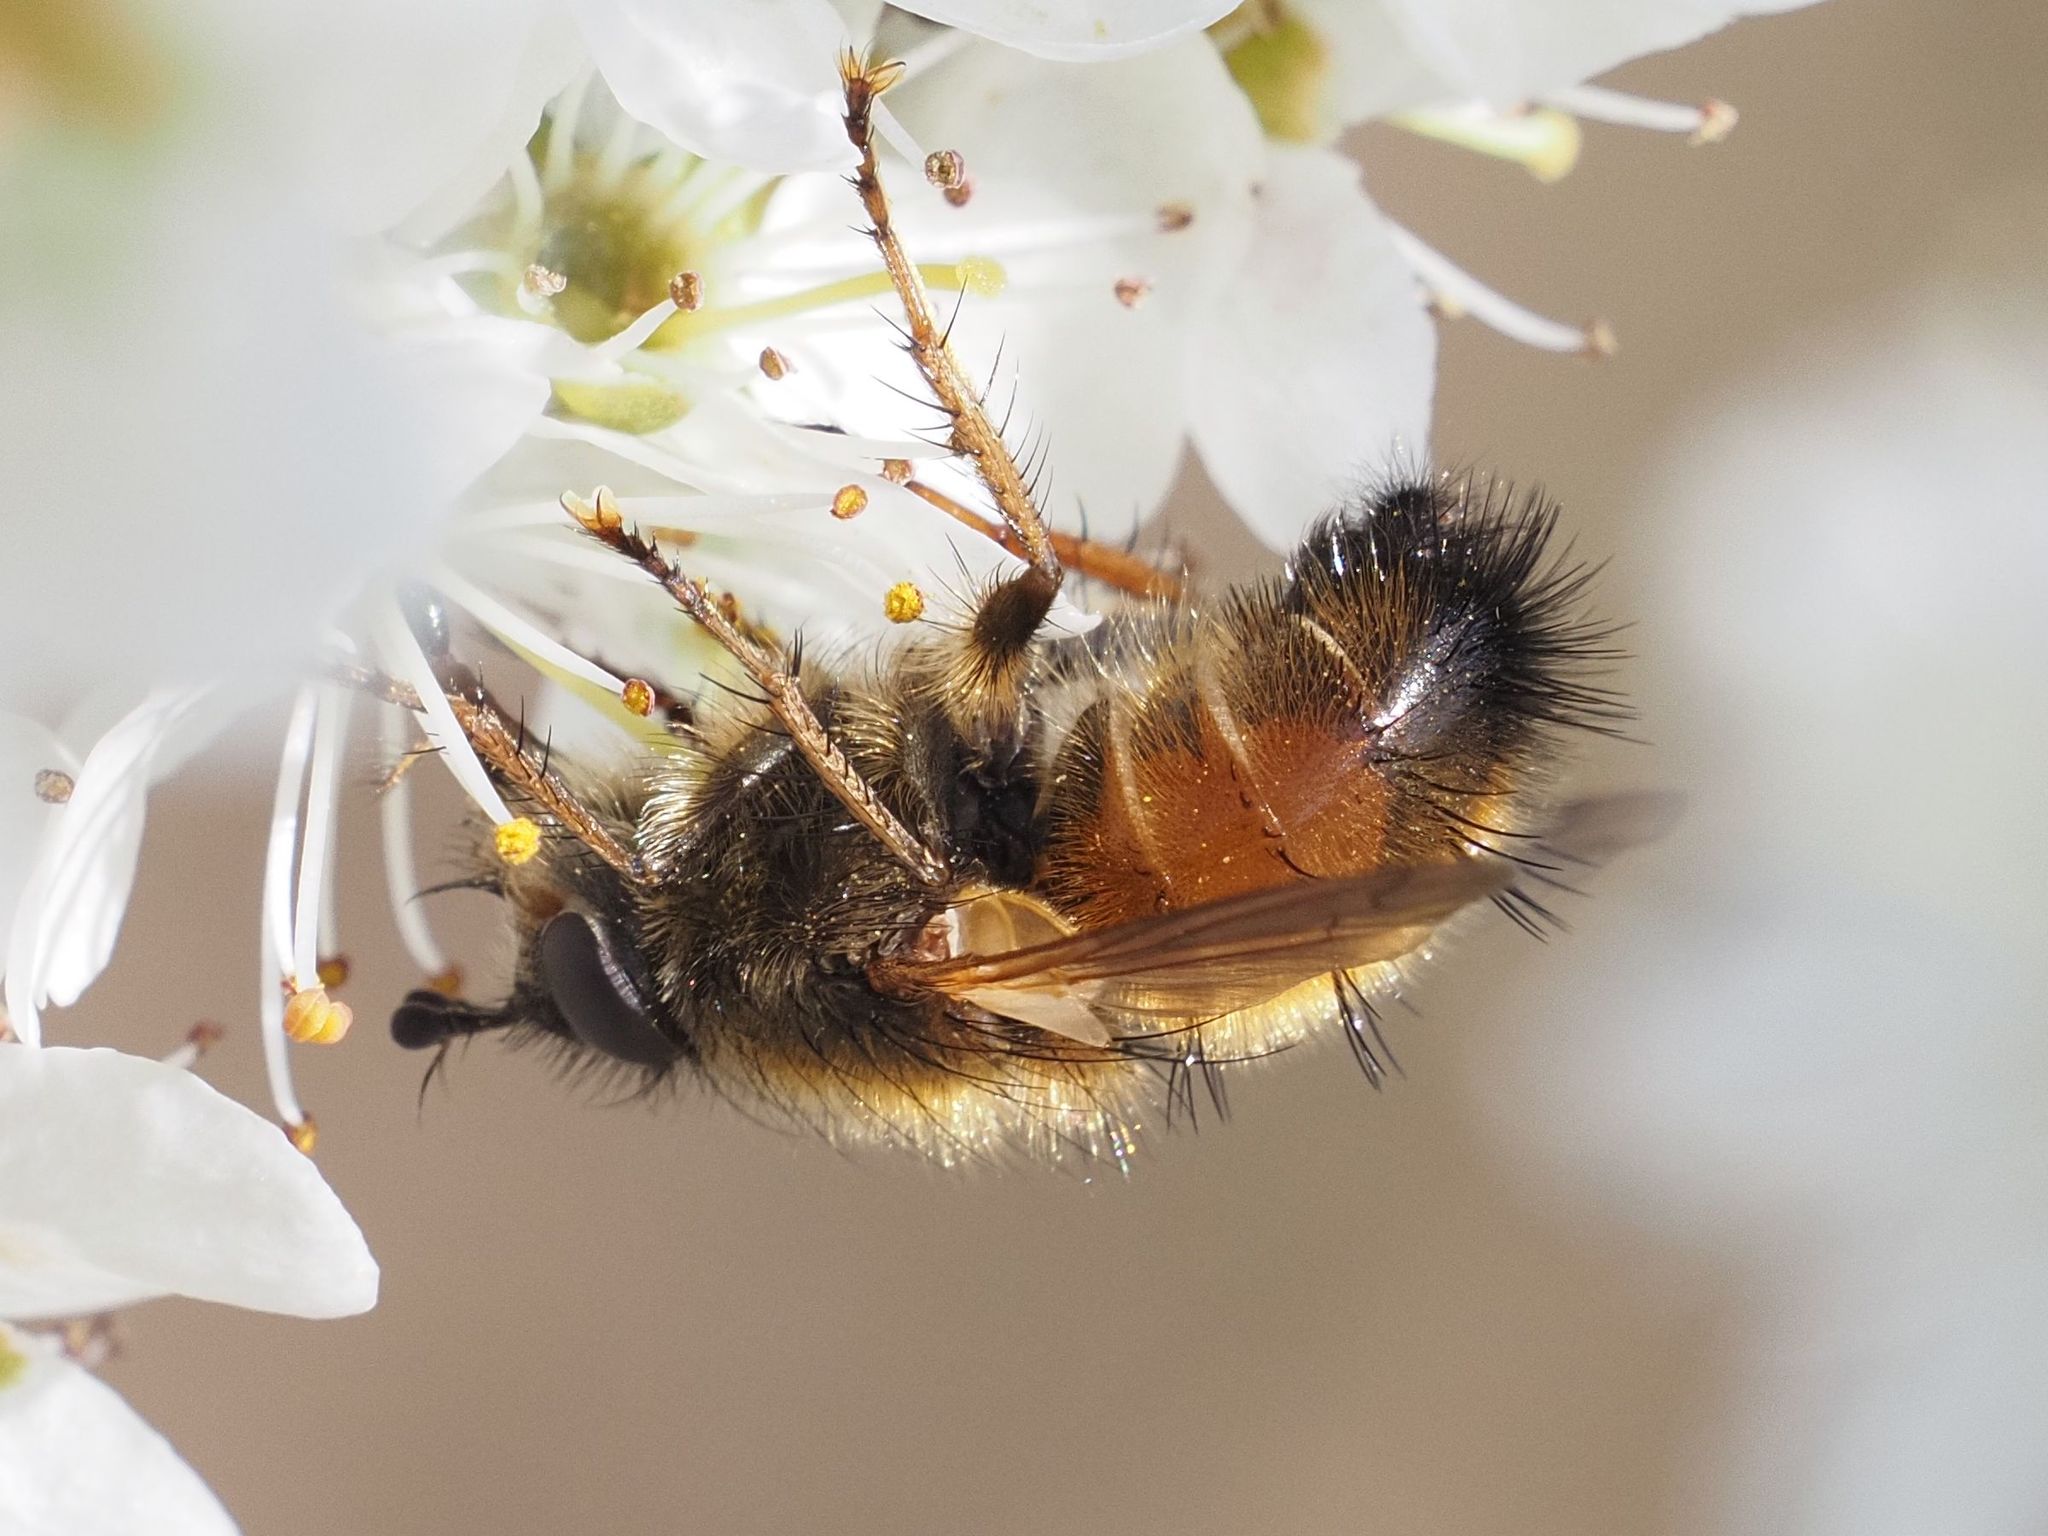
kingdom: Animalia
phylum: Arthropoda
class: Insecta
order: Diptera
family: Tachinidae
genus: Tachina
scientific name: Tachina lurida
